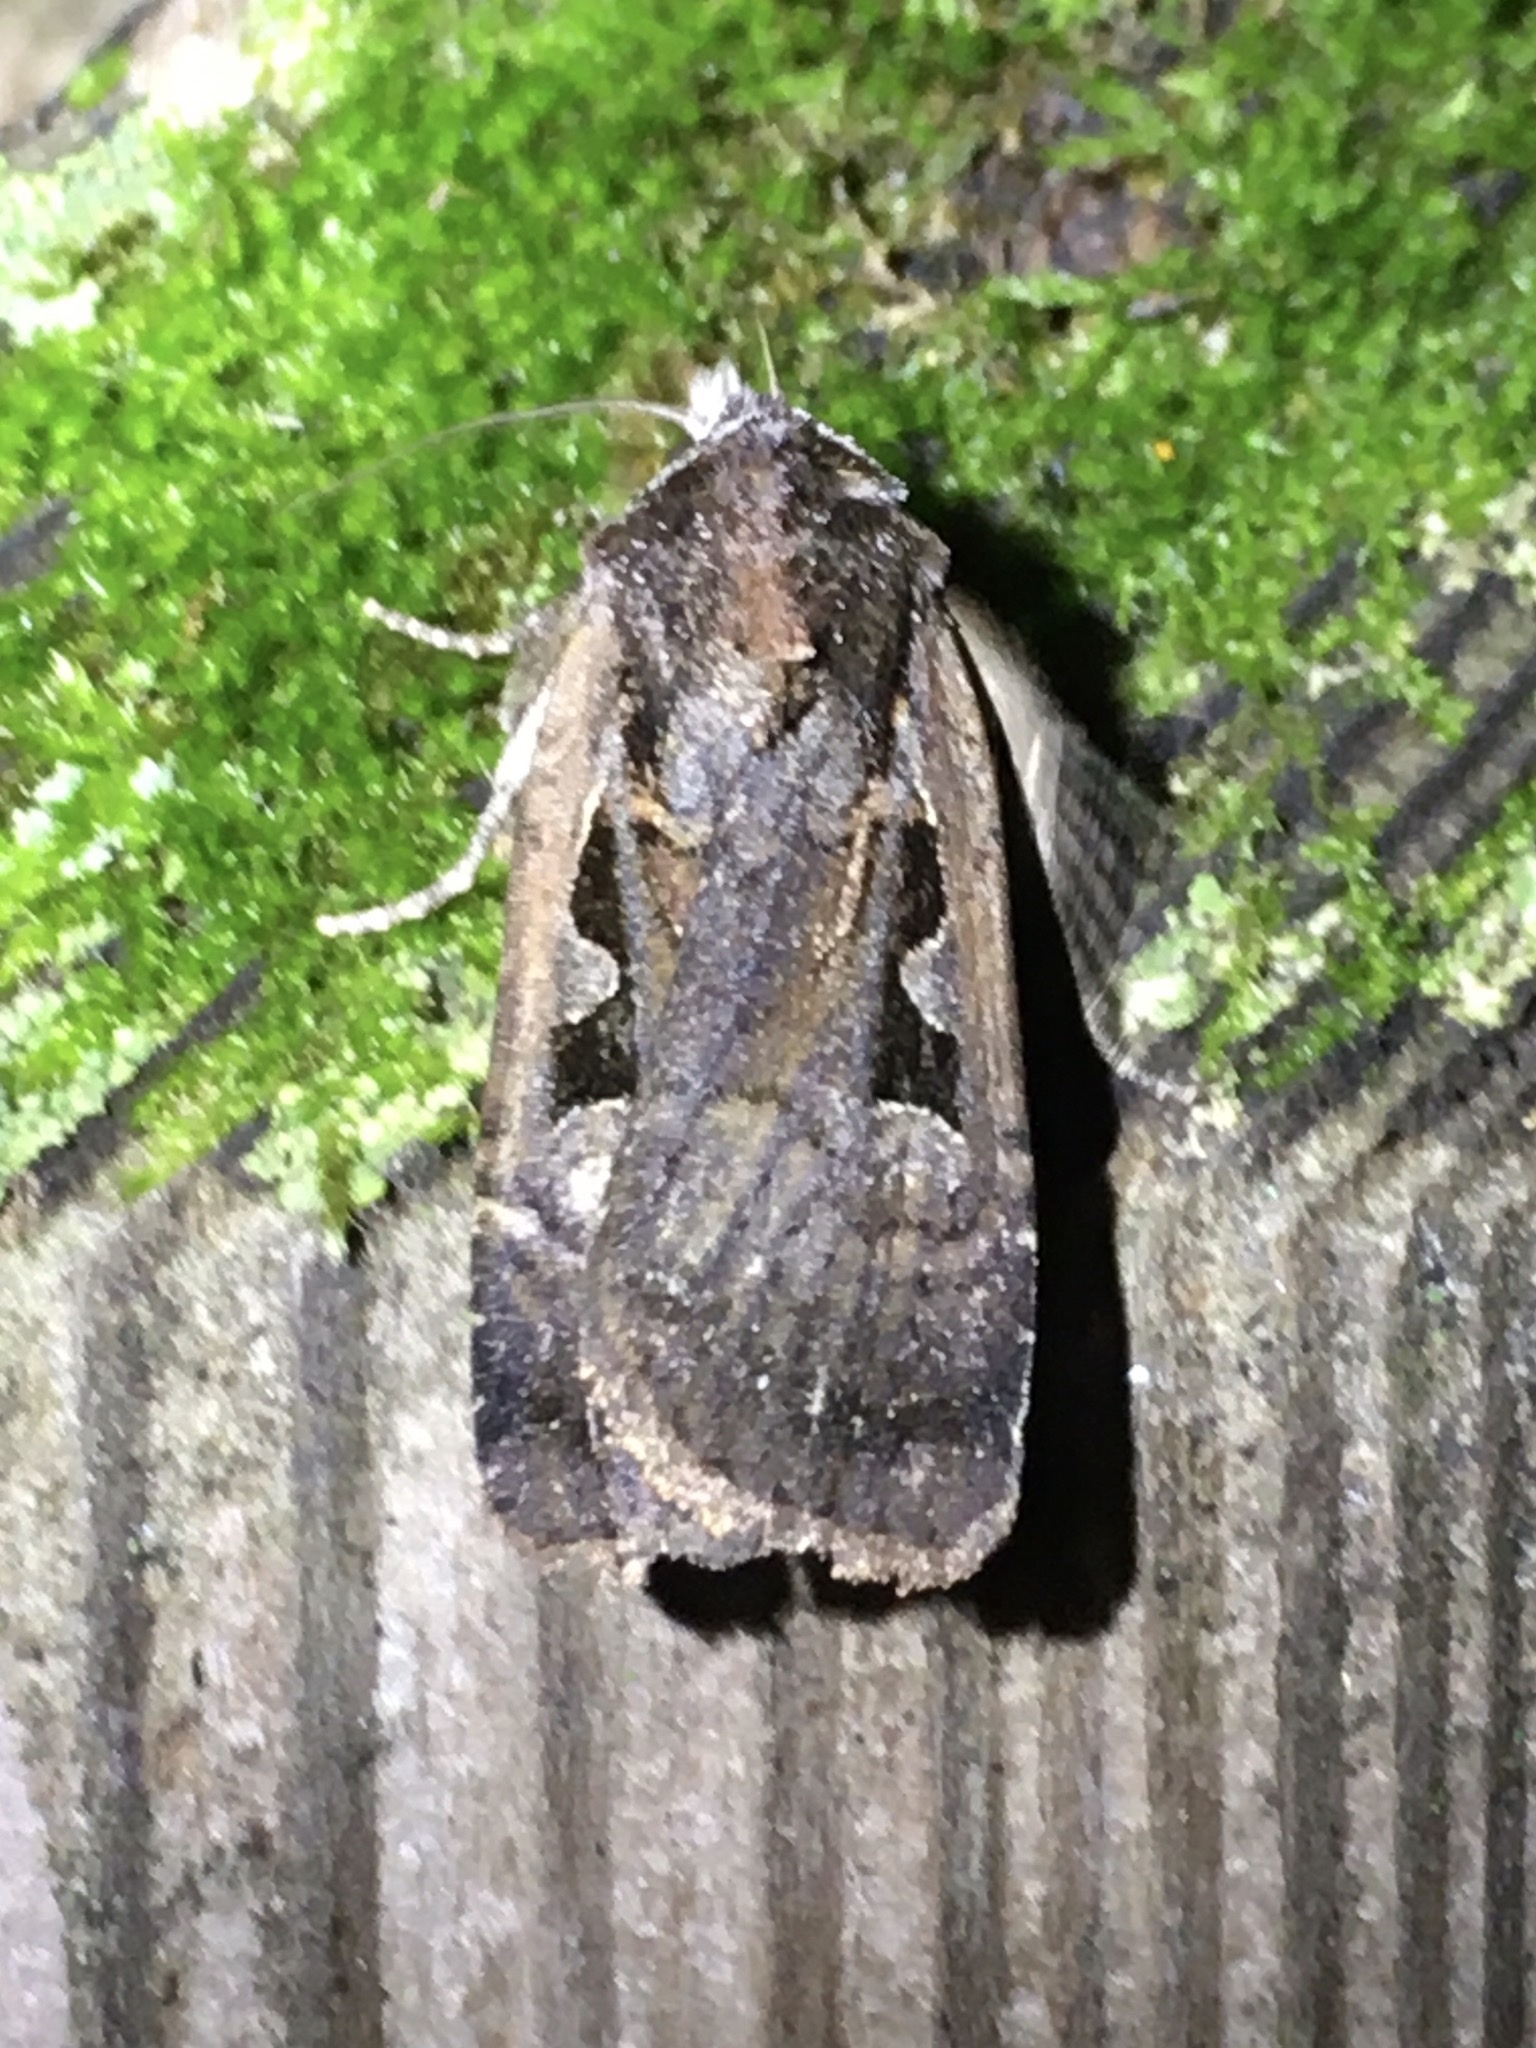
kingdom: Animalia
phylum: Arthropoda
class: Insecta
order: Lepidoptera
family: Noctuidae
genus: Parabagrotis
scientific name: Parabagrotis exsertistigma
